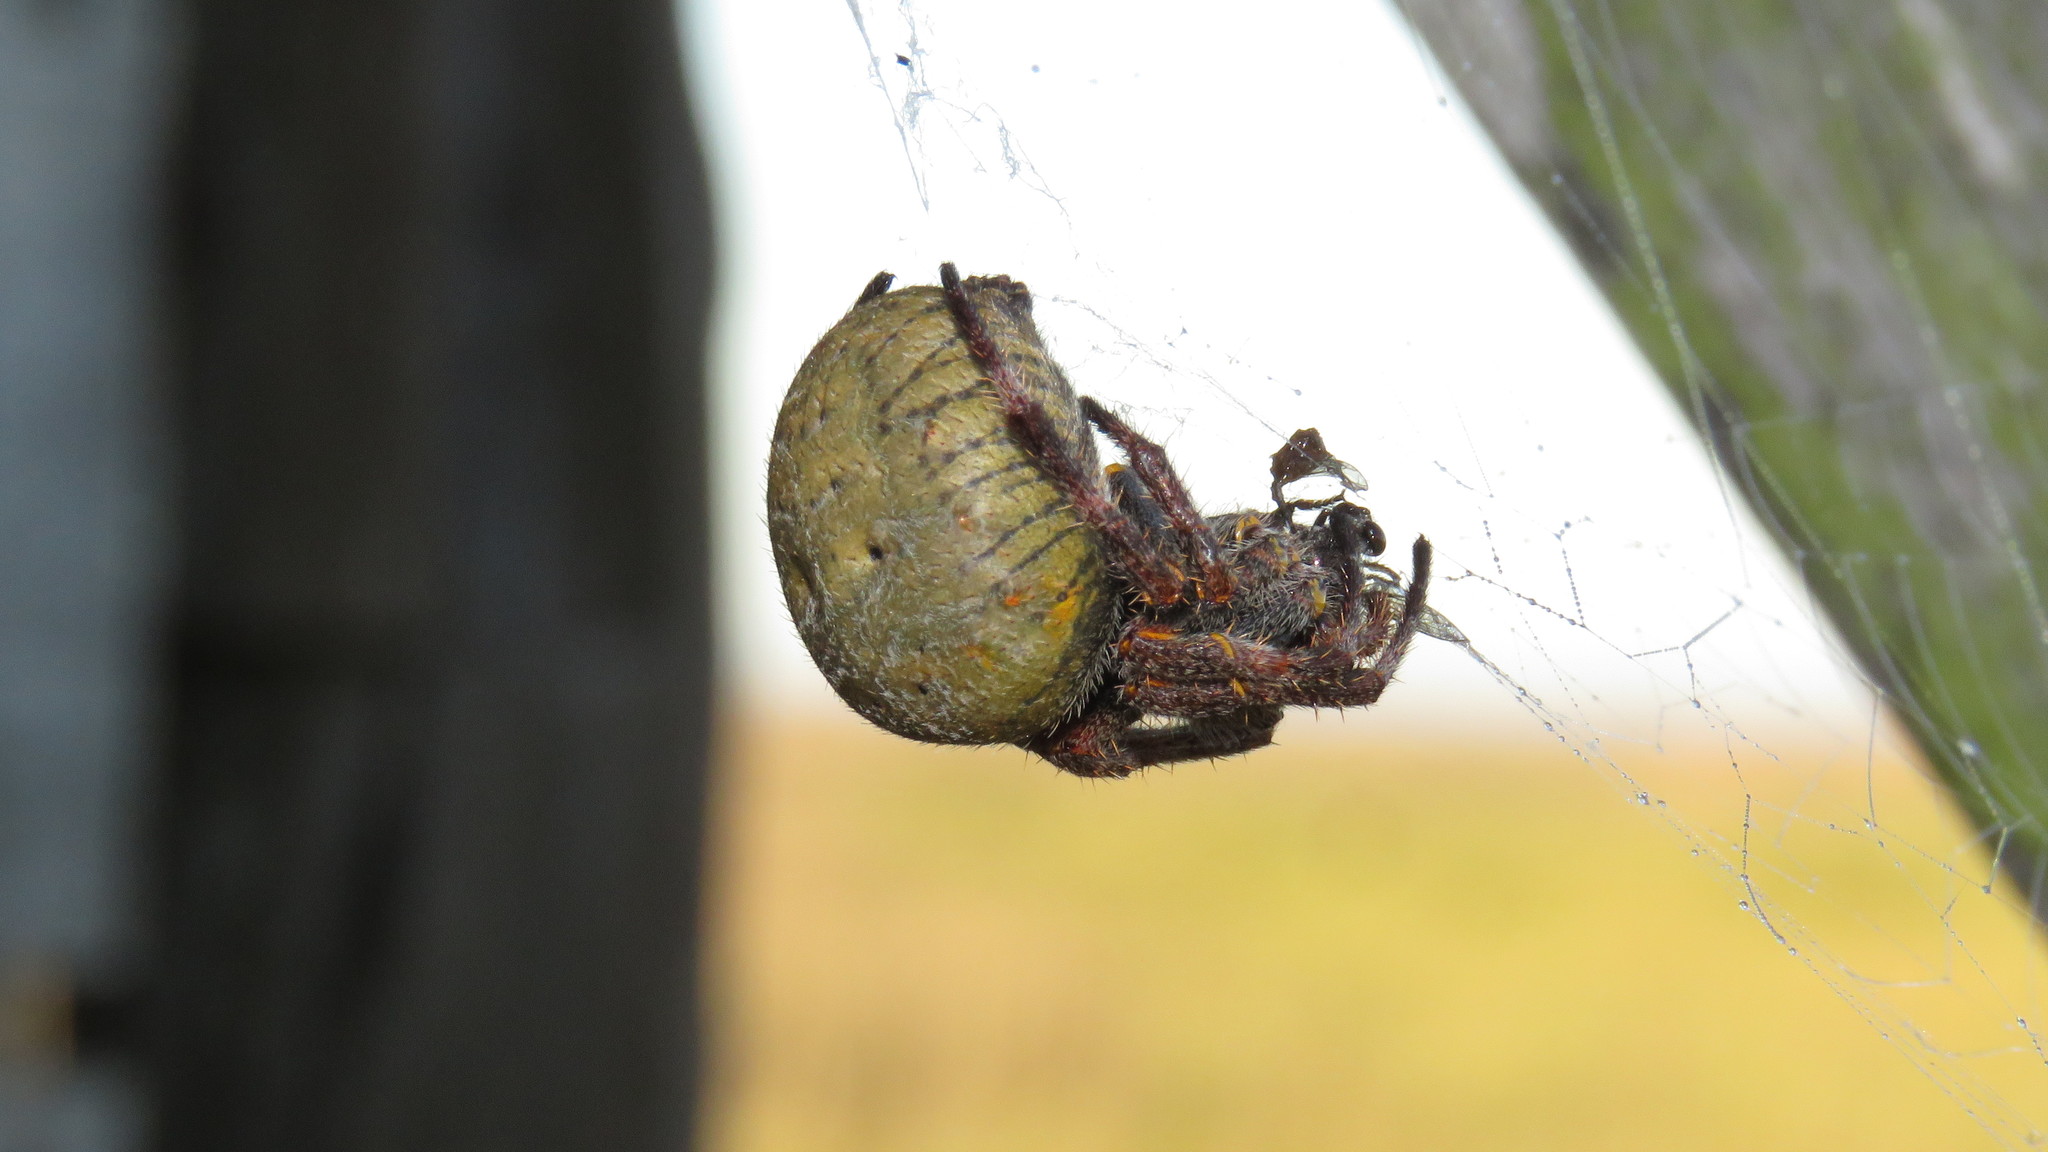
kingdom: Animalia
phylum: Arthropoda
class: Arachnida
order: Araneae
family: Araneidae
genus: Parawixia
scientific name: Parawixia bistriata
